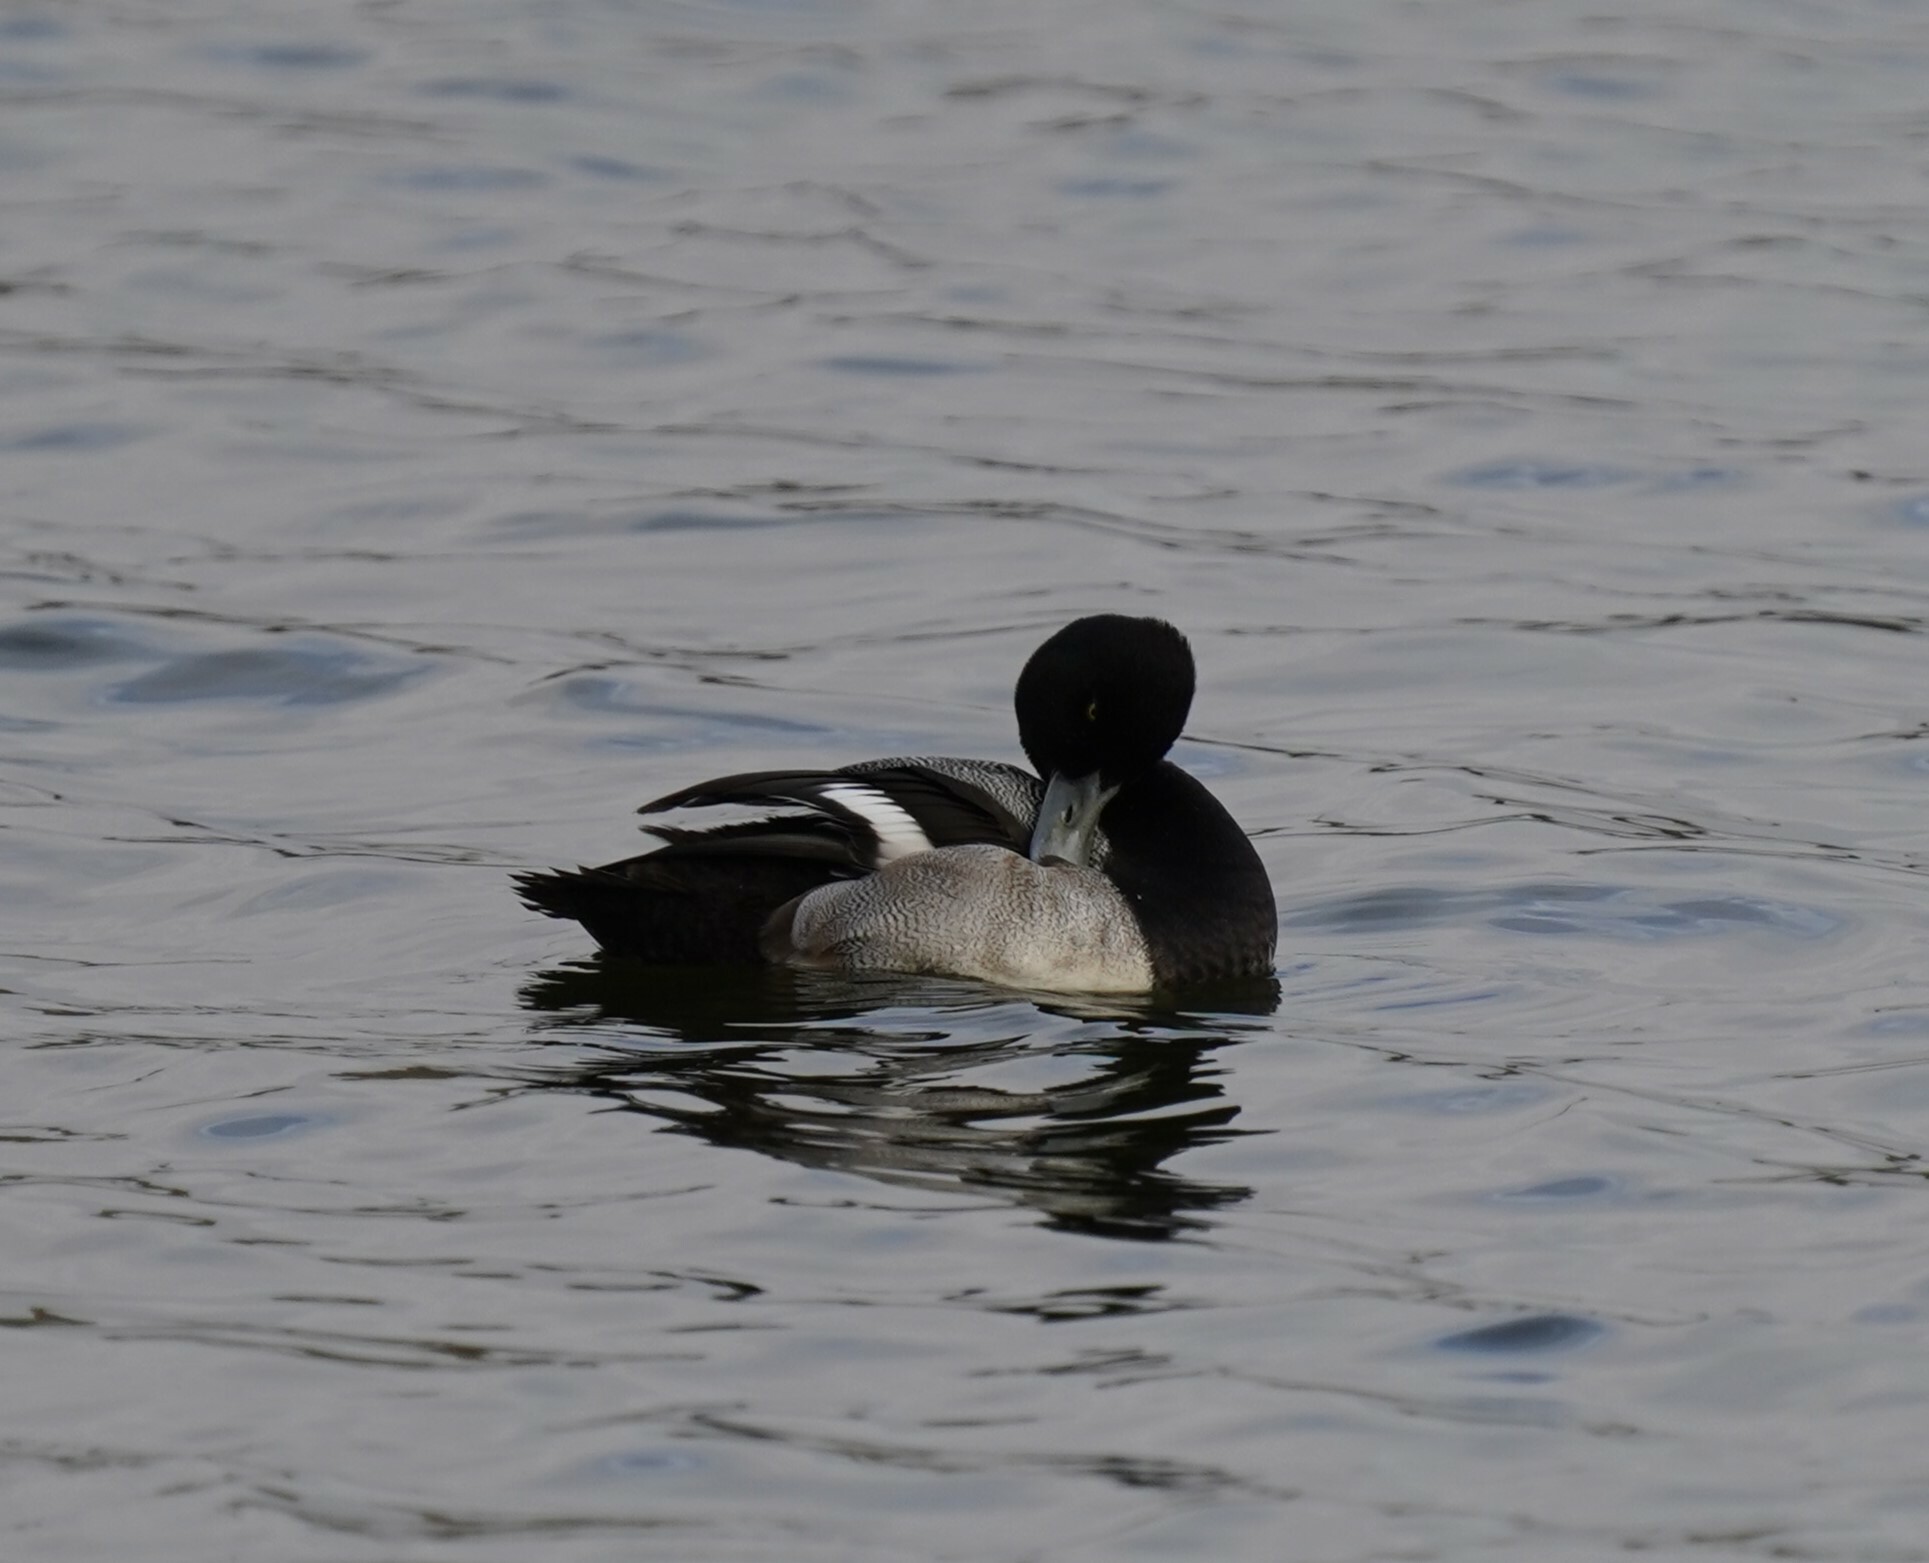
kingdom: Animalia
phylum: Chordata
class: Aves
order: Anseriformes
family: Anatidae
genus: Aythya
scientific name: Aythya affinis
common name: Lesser scaup
